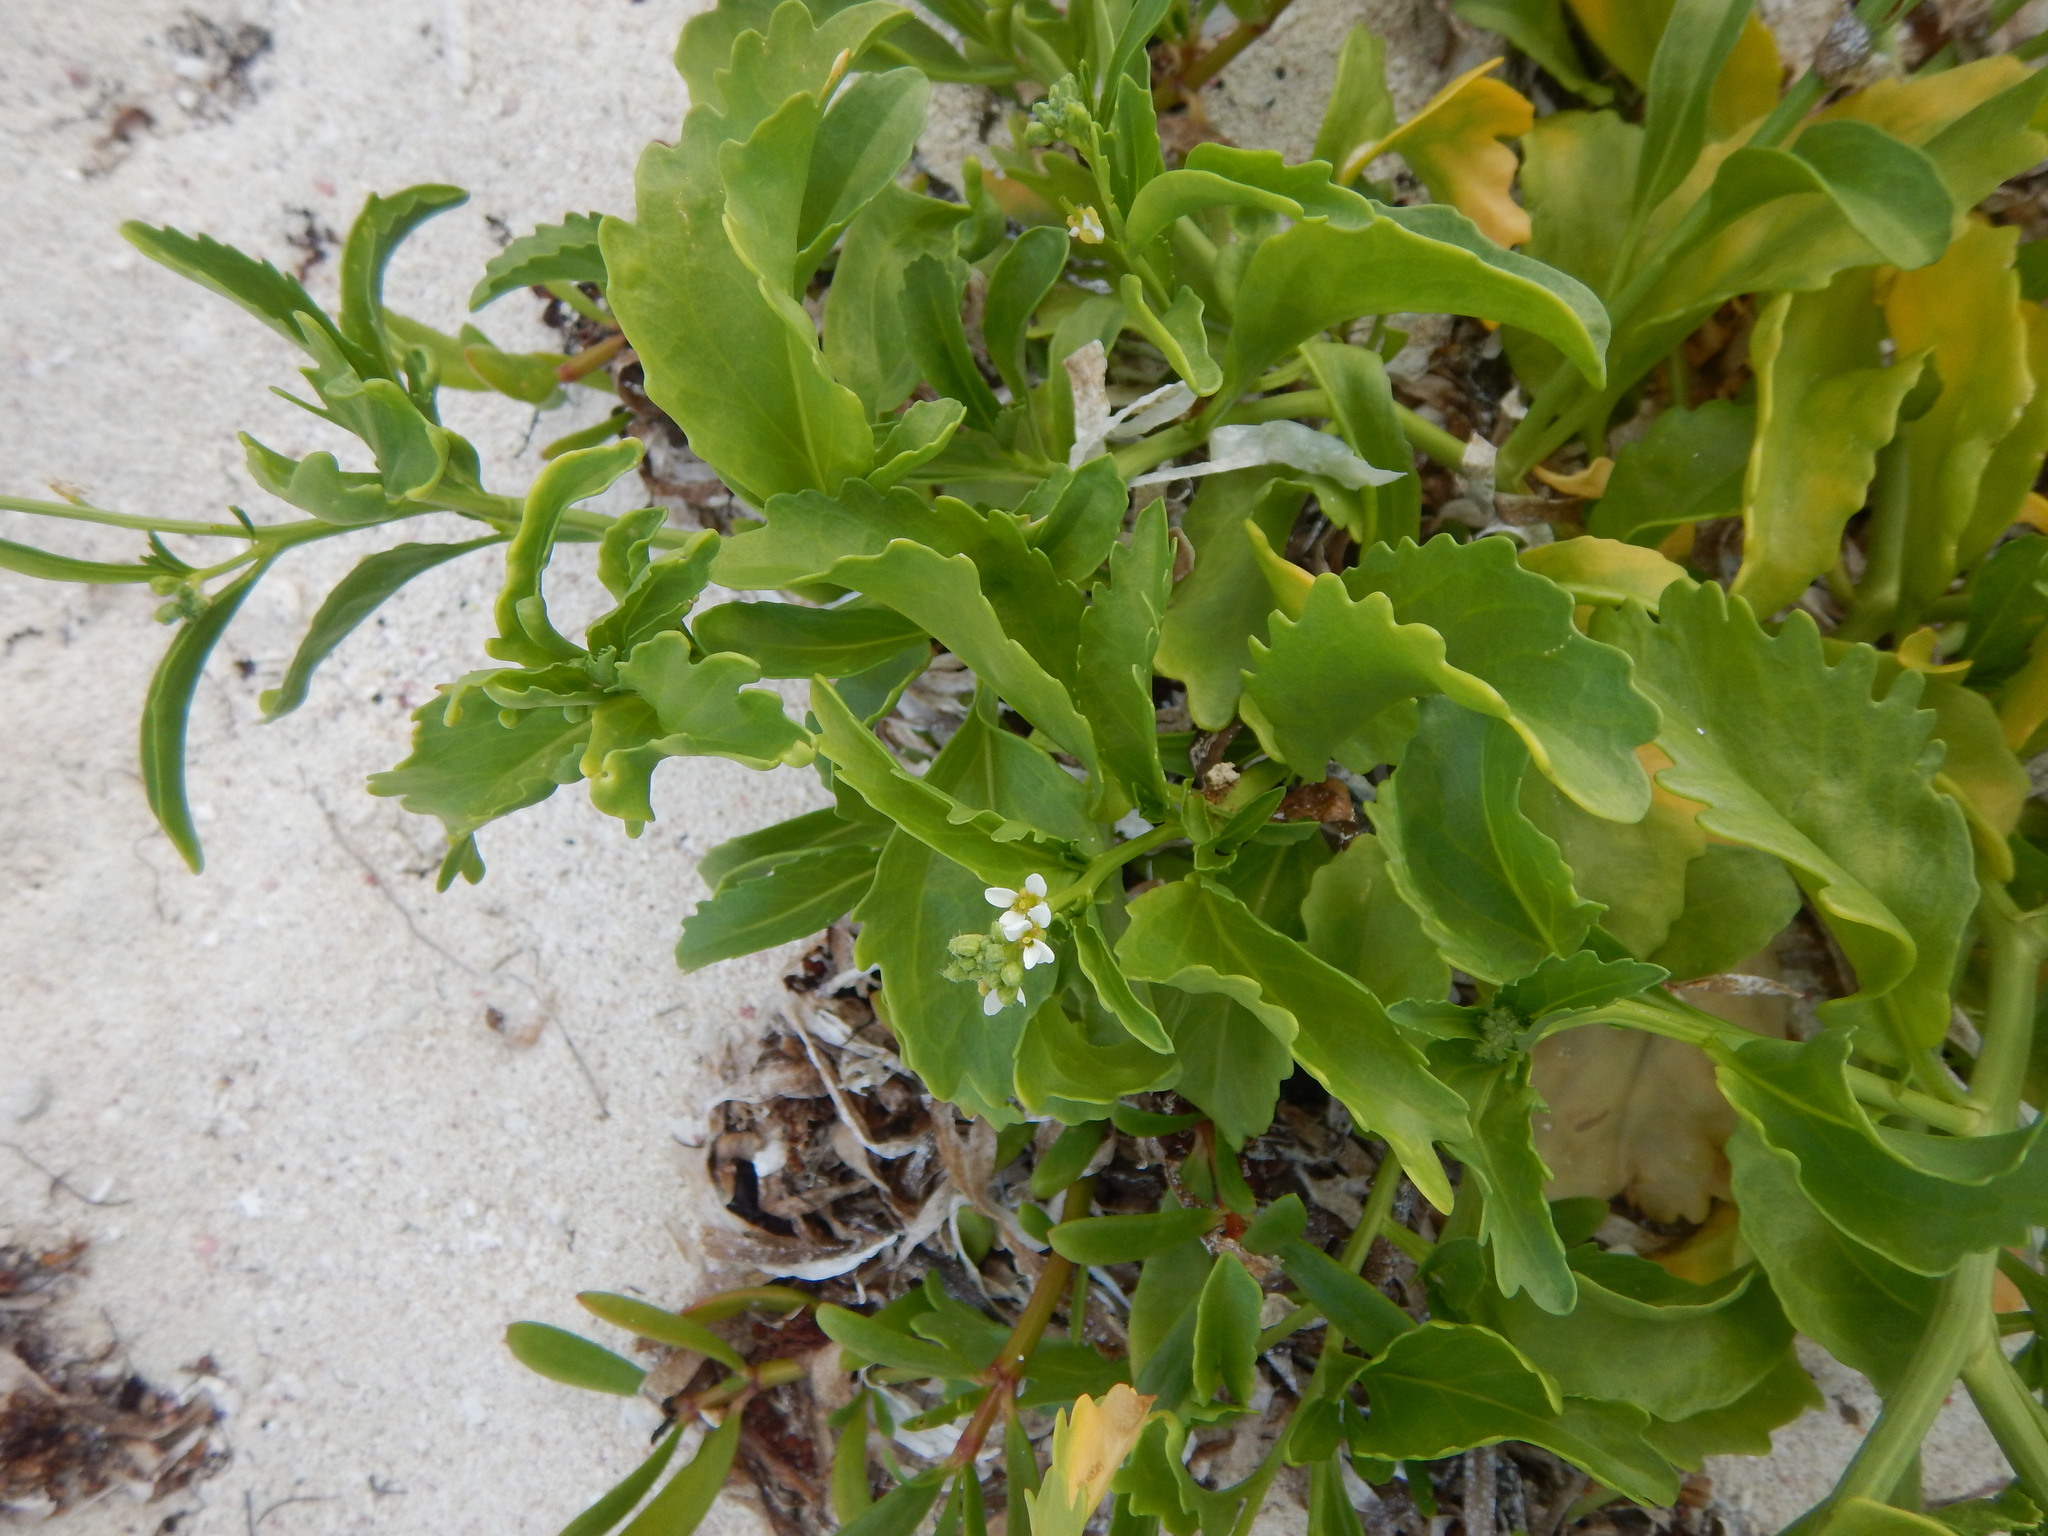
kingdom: Plantae
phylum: Tracheophyta
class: Magnoliopsida
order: Brassicales
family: Brassicaceae
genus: Cakile
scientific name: Cakile lanceolata
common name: Sea rocket
